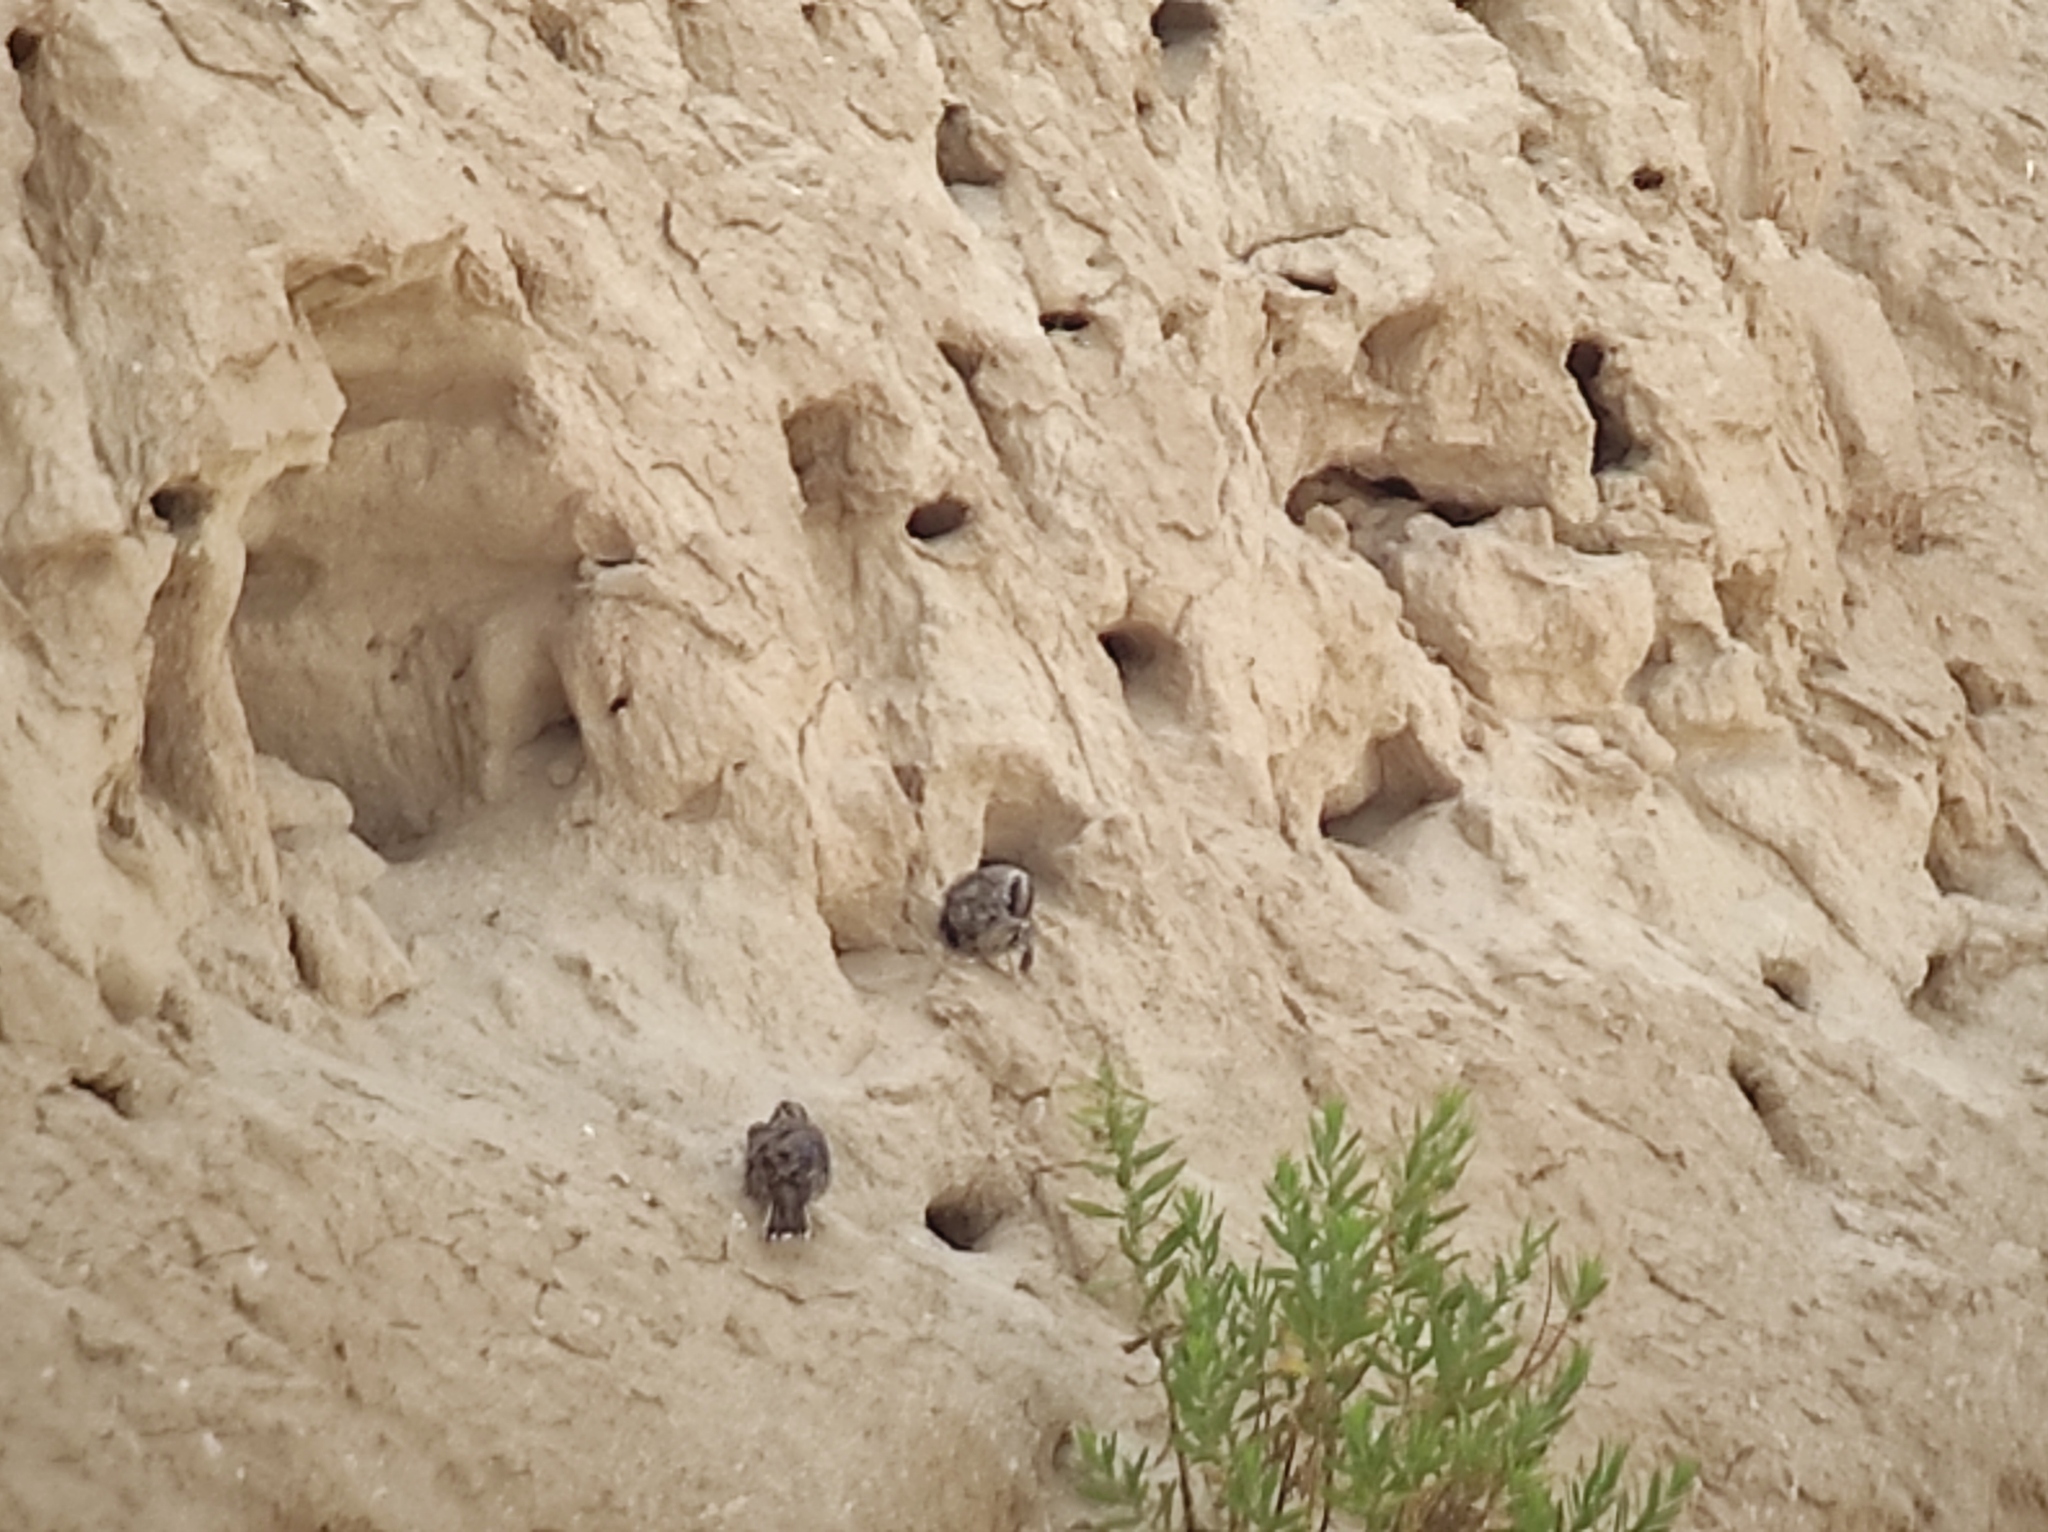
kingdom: Animalia
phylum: Chordata
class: Aves
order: Passeriformes
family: Passeridae
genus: Petronia
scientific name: Petronia petronia
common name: Rock sparrow
